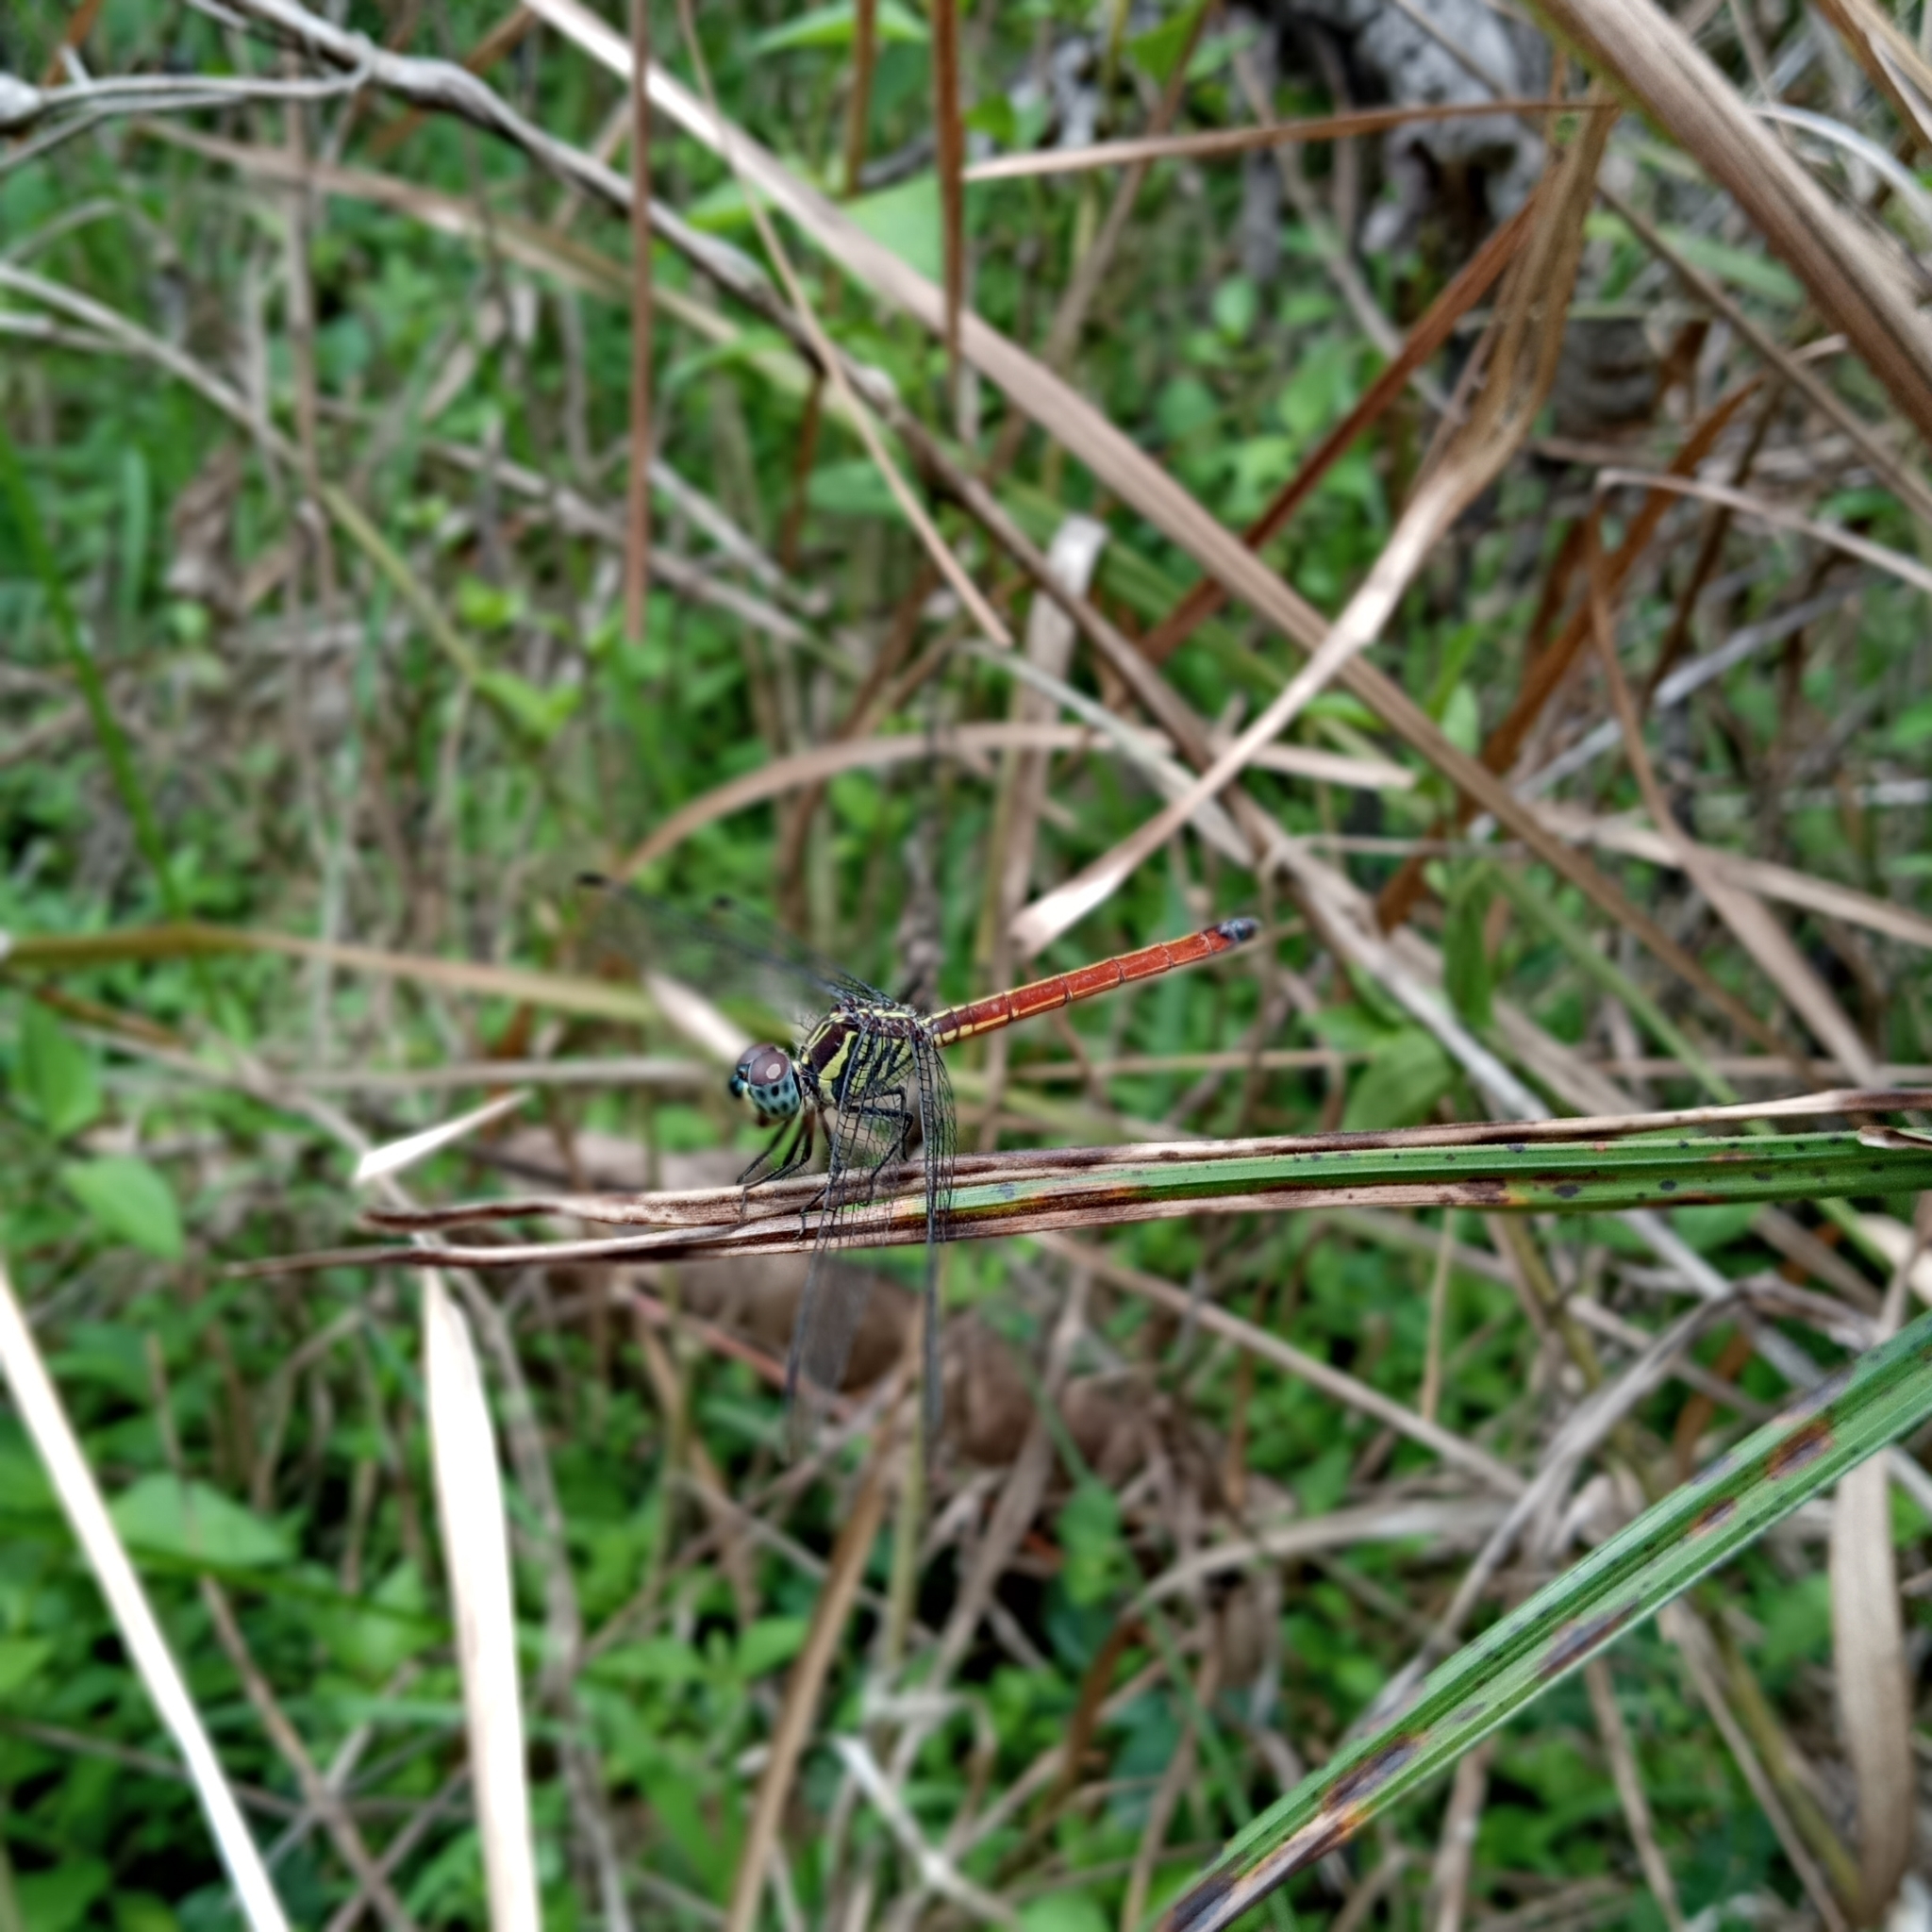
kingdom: Animalia
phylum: Arthropoda
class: Insecta
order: Odonata
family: Libellulidae
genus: Lathrecista
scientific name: Lathrecista asiatica
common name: Scarlet grenadier
